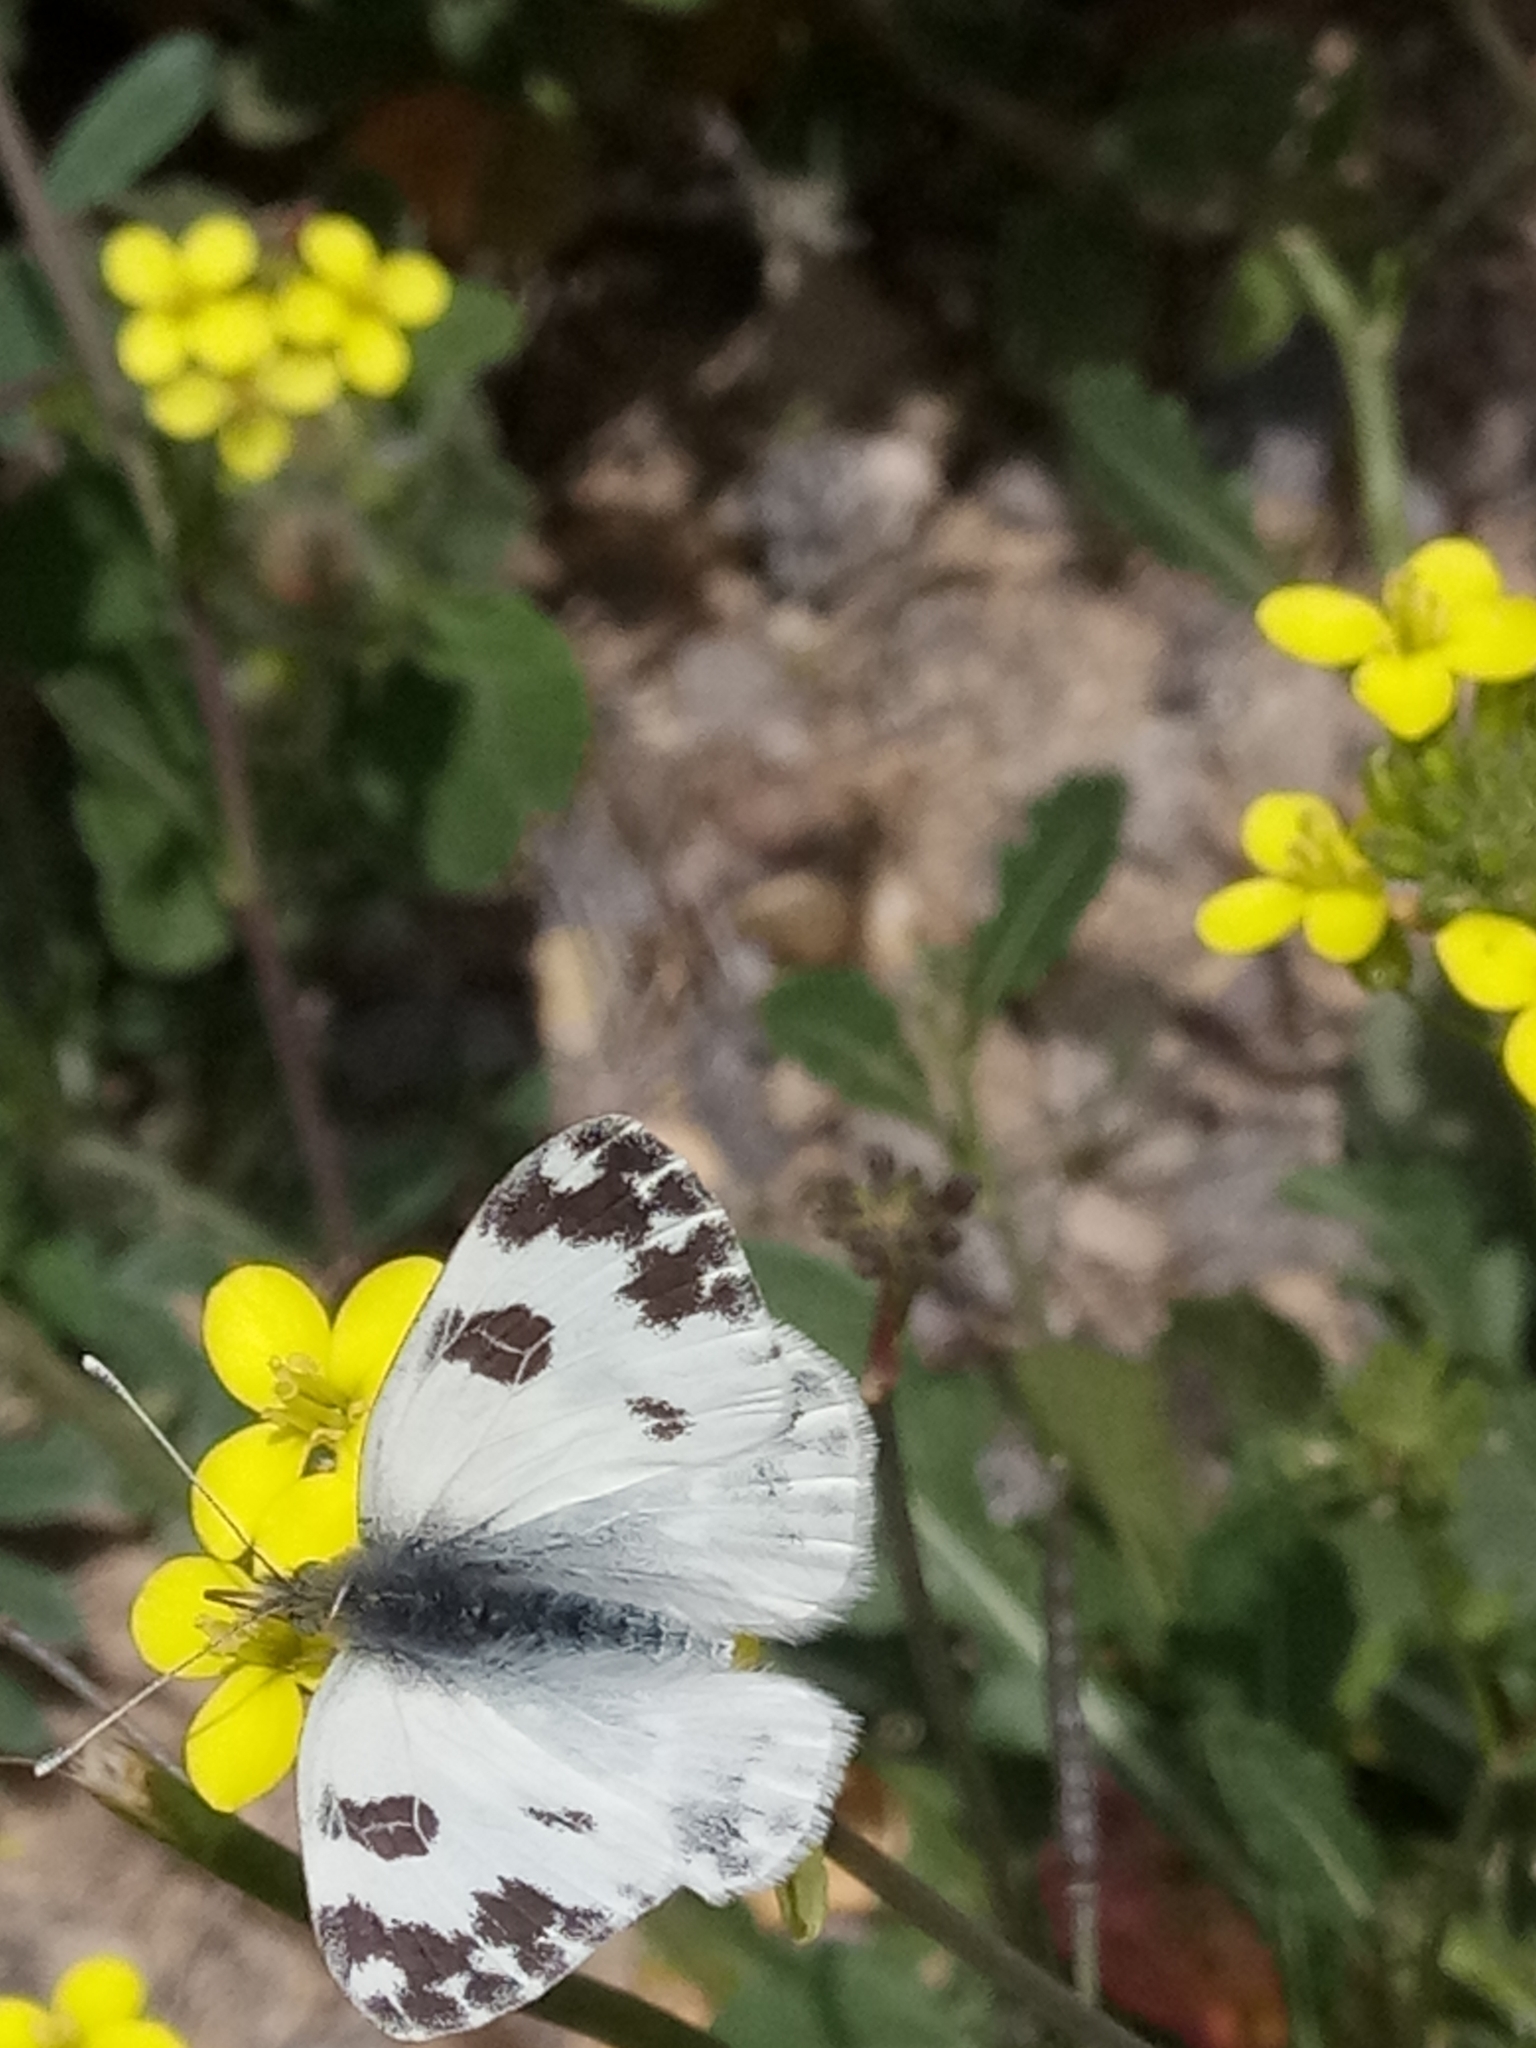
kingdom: Animalia
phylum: Arthropoda
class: Insecta
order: Lepidoptera
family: Pieridae
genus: Pontia
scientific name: Pontia daplidice
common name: Bath white
